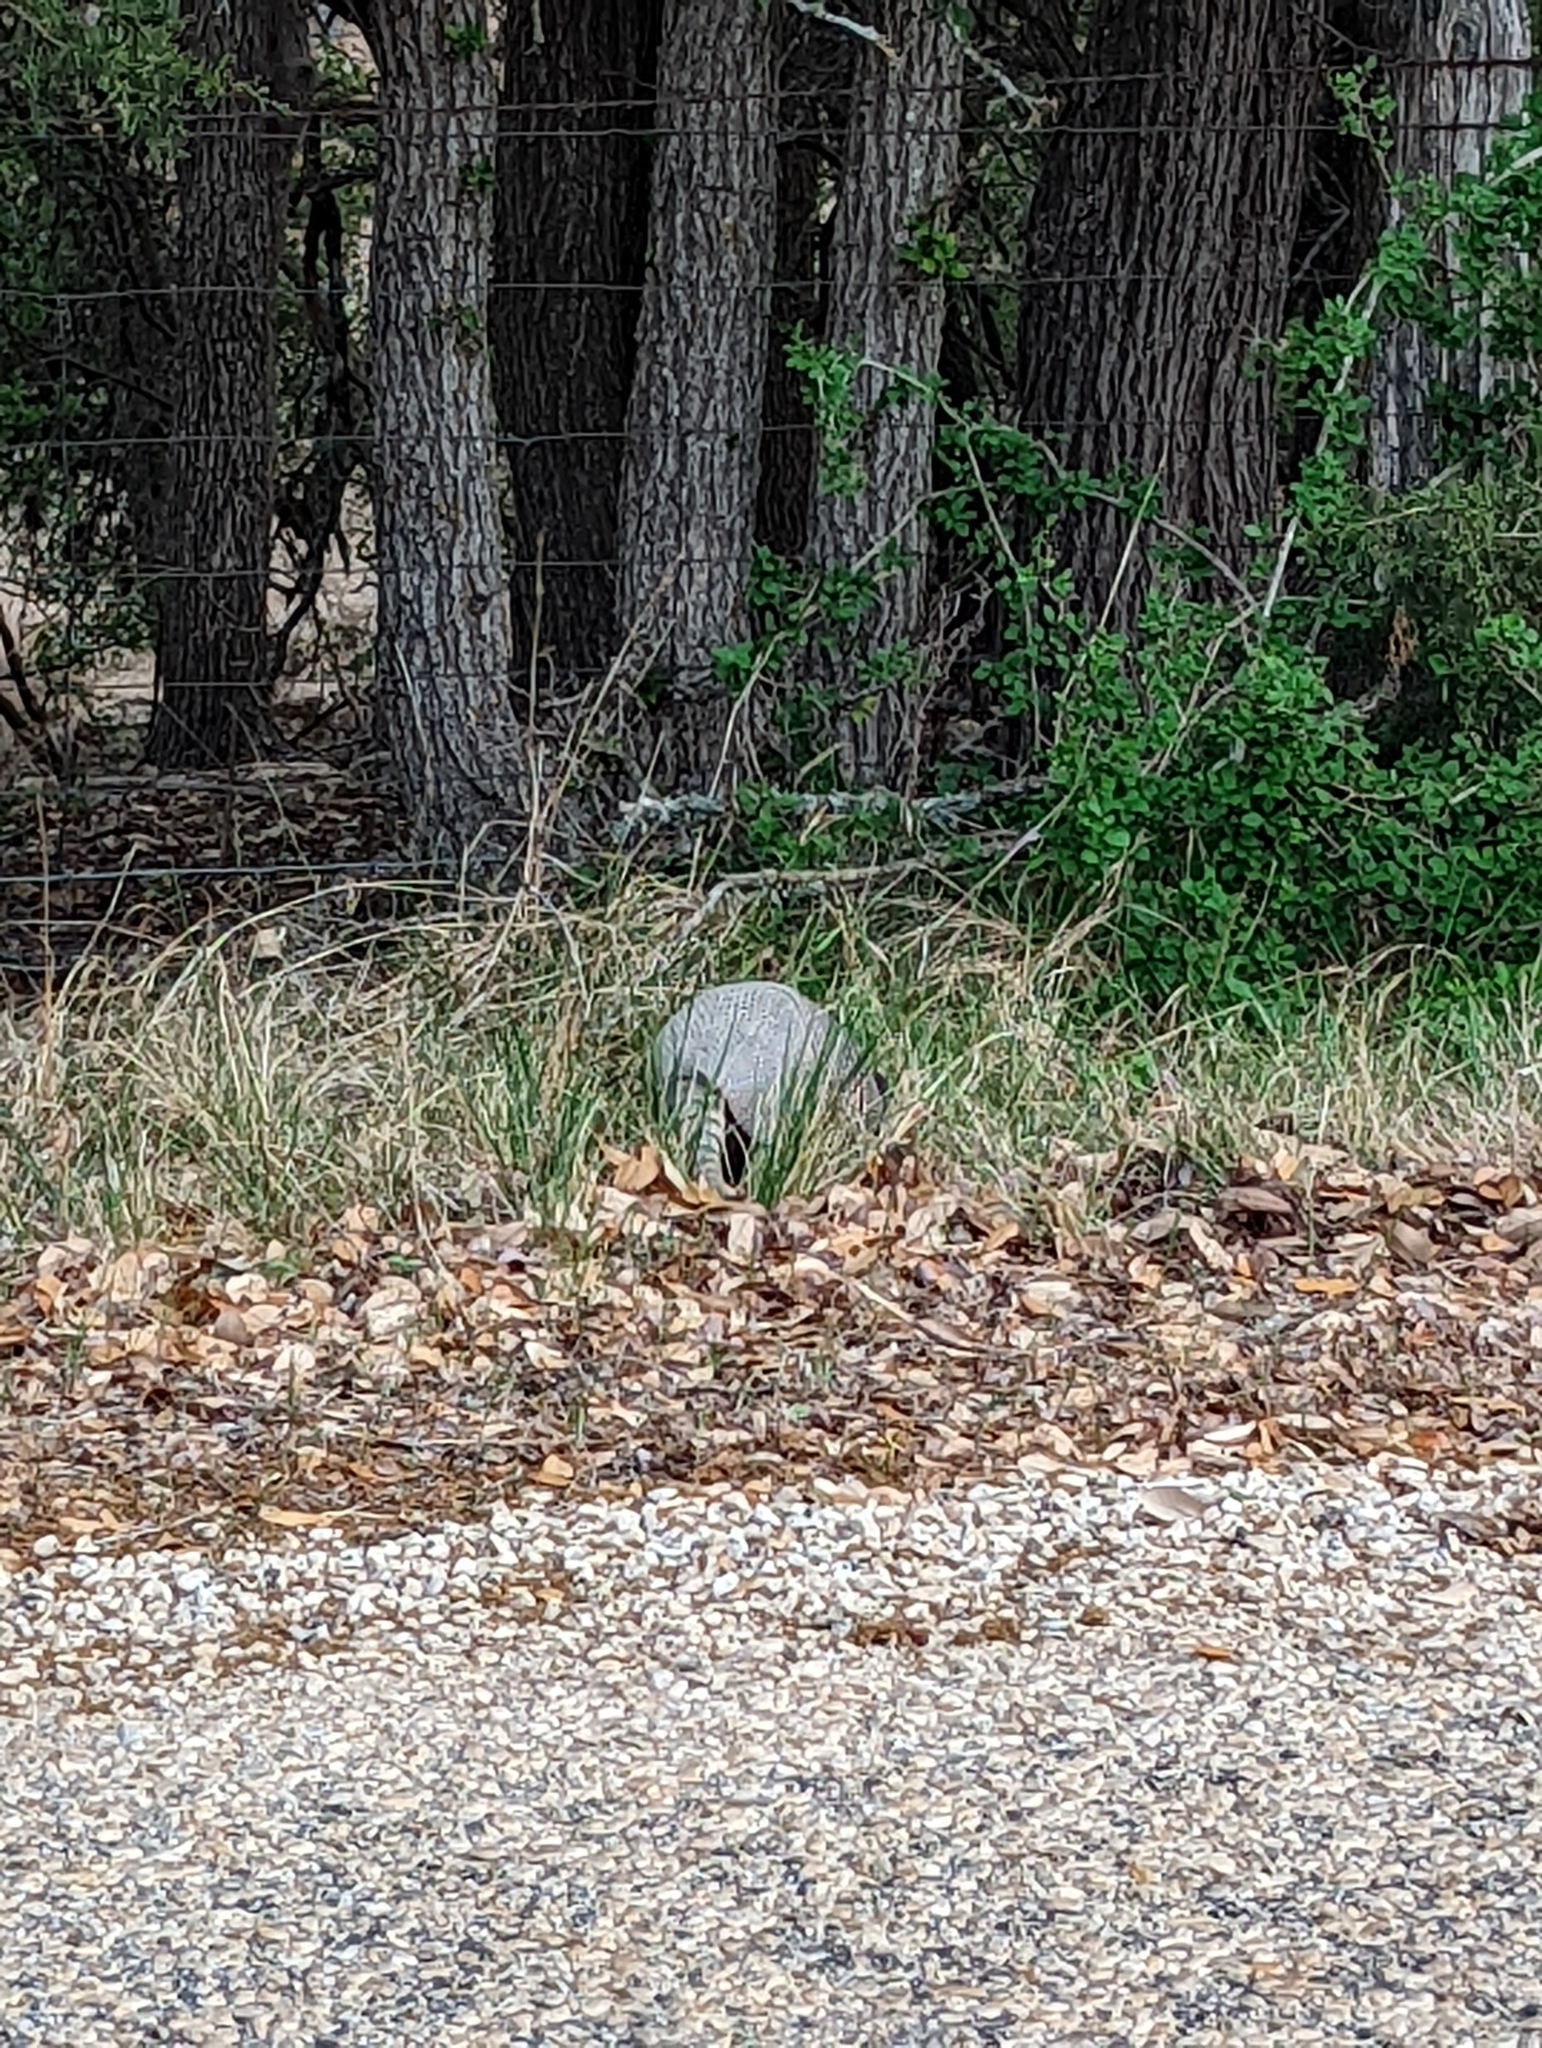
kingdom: Animalia
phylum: Chordata
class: Mammalia
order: Cingulata
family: Dasypodidae
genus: Dasypus
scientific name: Dasypus novemcinctus
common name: Nine-banded armadillo
